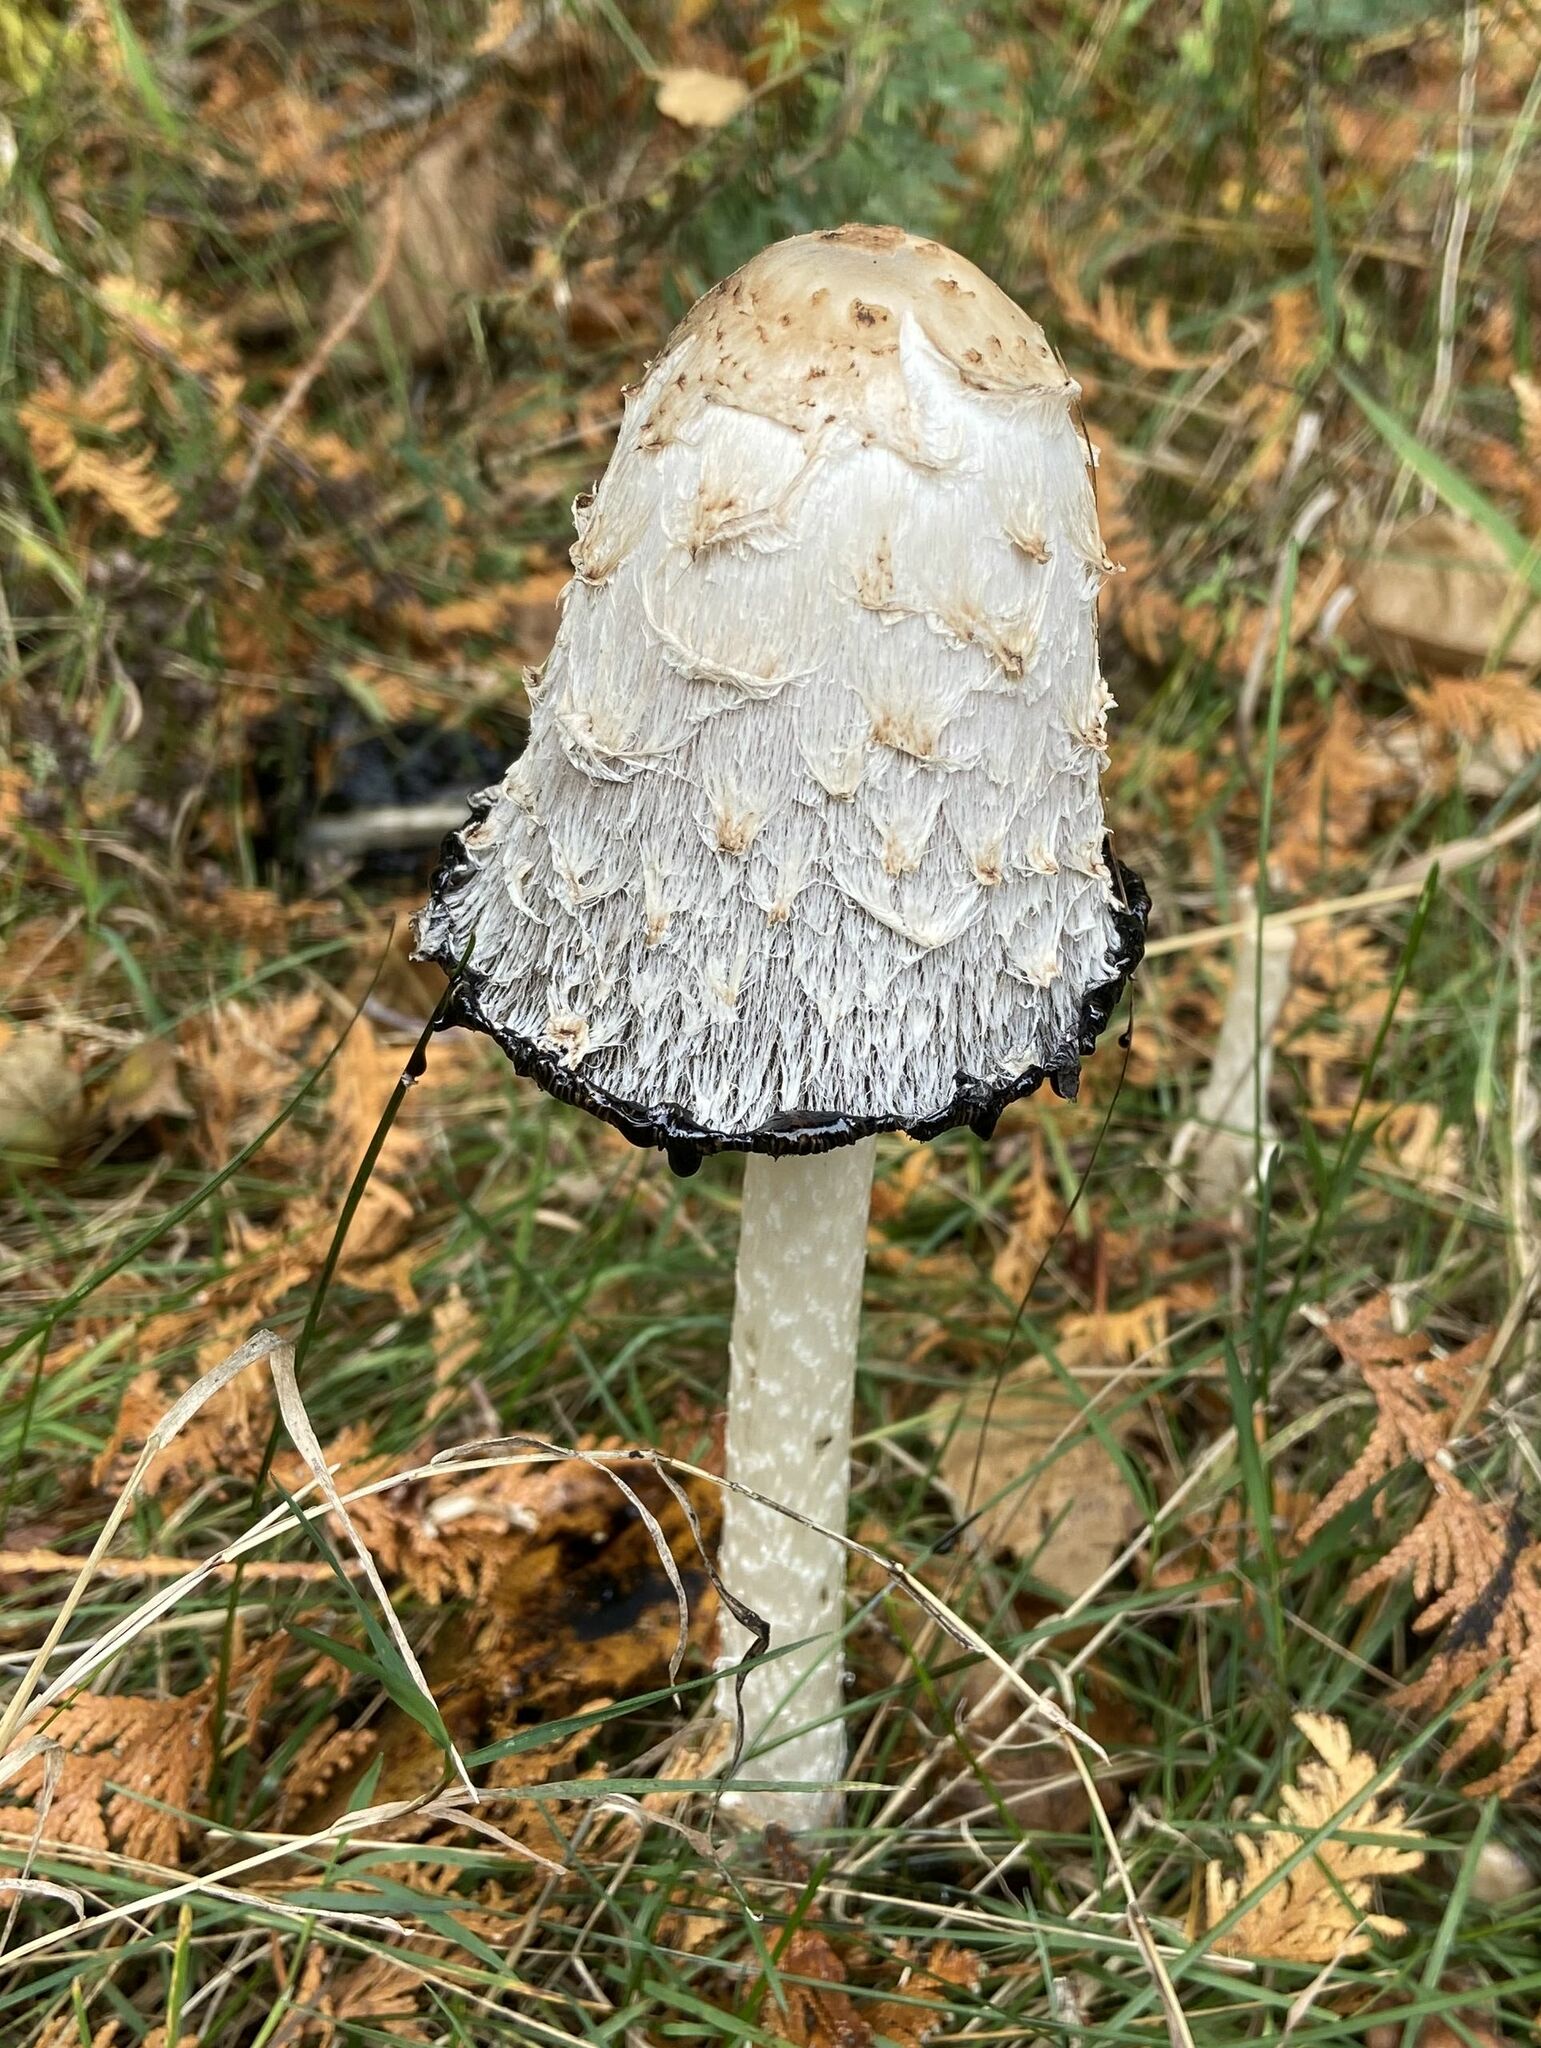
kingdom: Fungi
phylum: Basidiomycota
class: Agaricomycetes
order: Agaricales
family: Agaricaceae
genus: Coprinus
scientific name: Coprinus comatus
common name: Lawyer's wig
